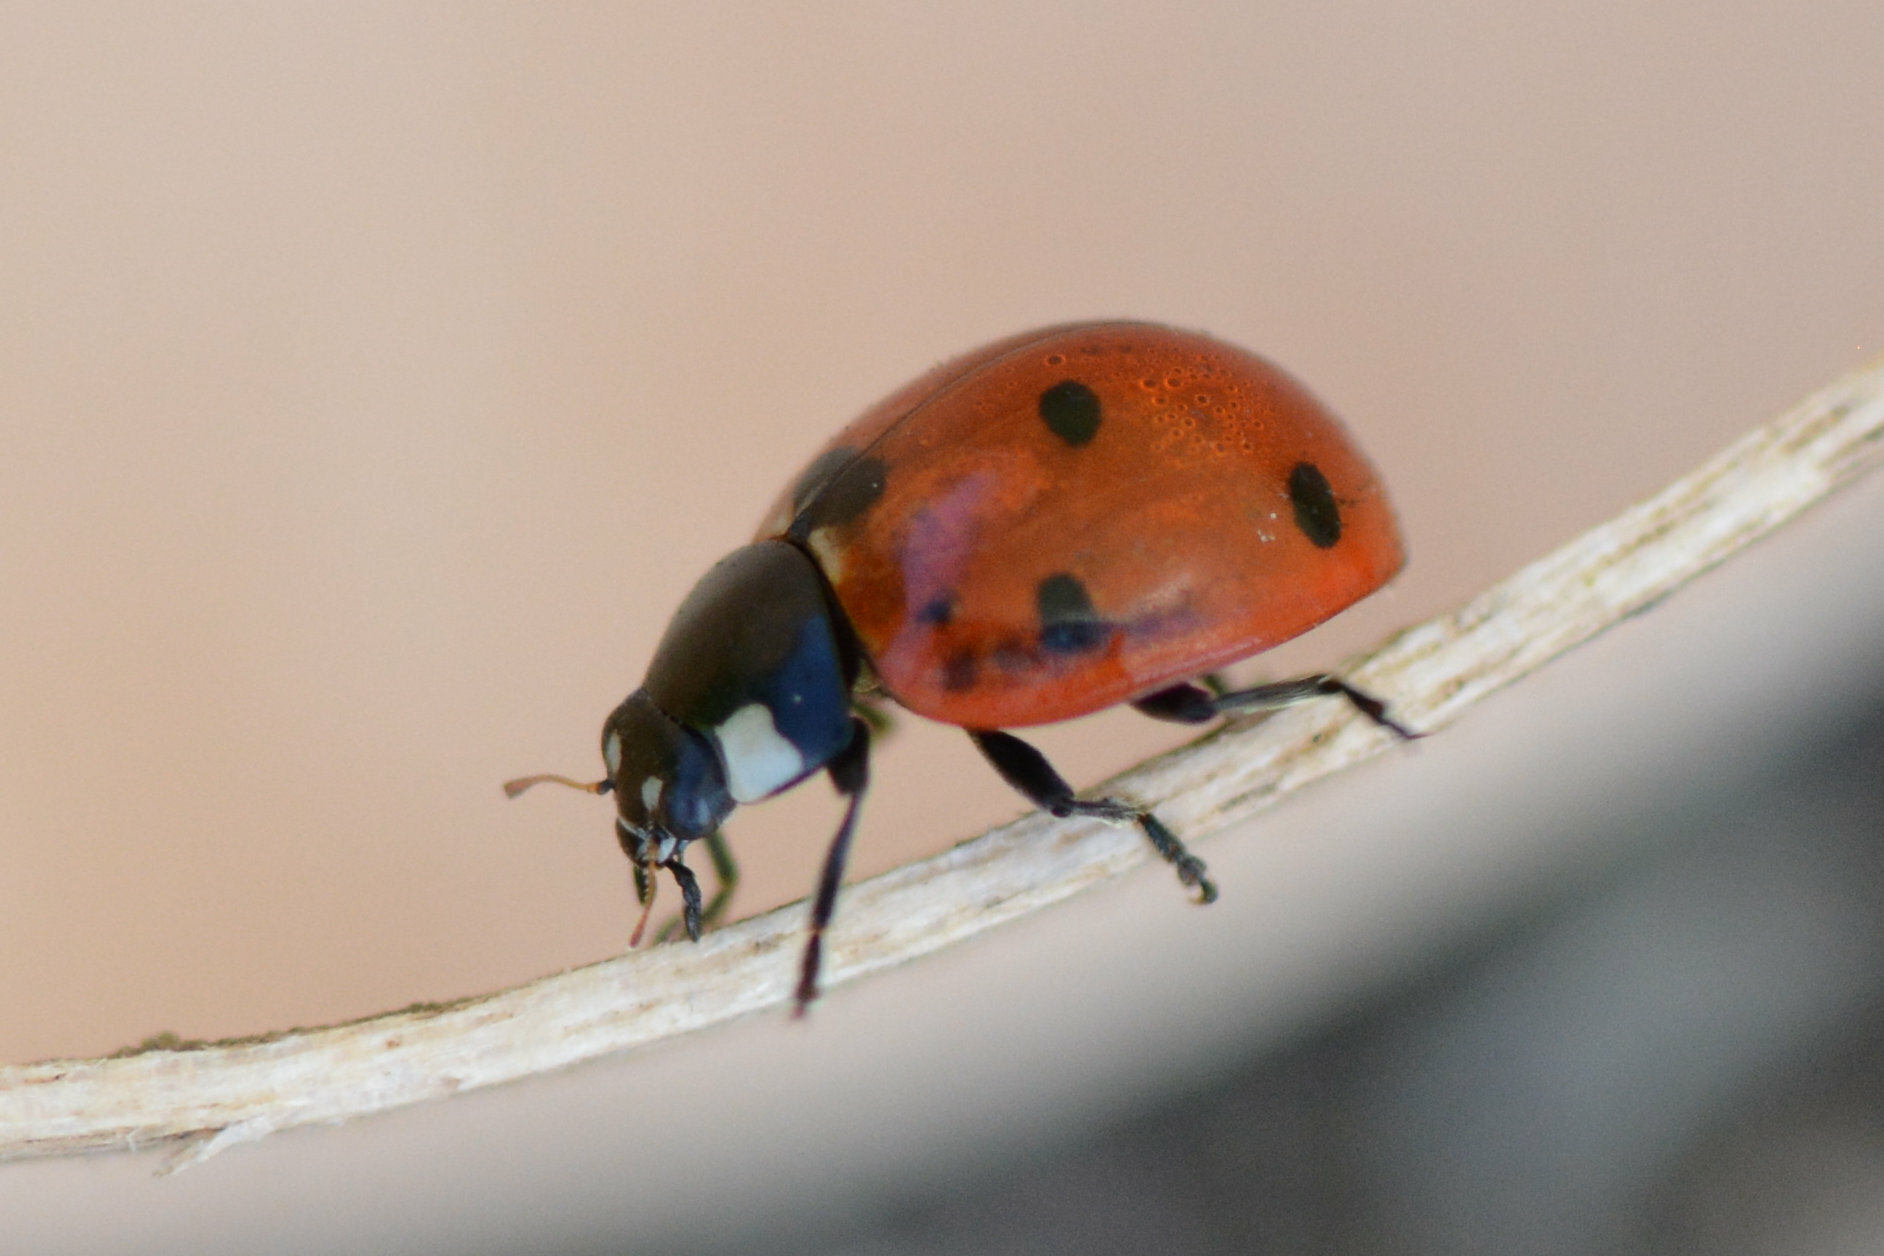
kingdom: Animalia
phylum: Arthropoda
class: Insecta
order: Coleoptera
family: Coccinellidae
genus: Coccinella
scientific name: Coccinella septempunctata
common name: Sevenspotted lady beetle
